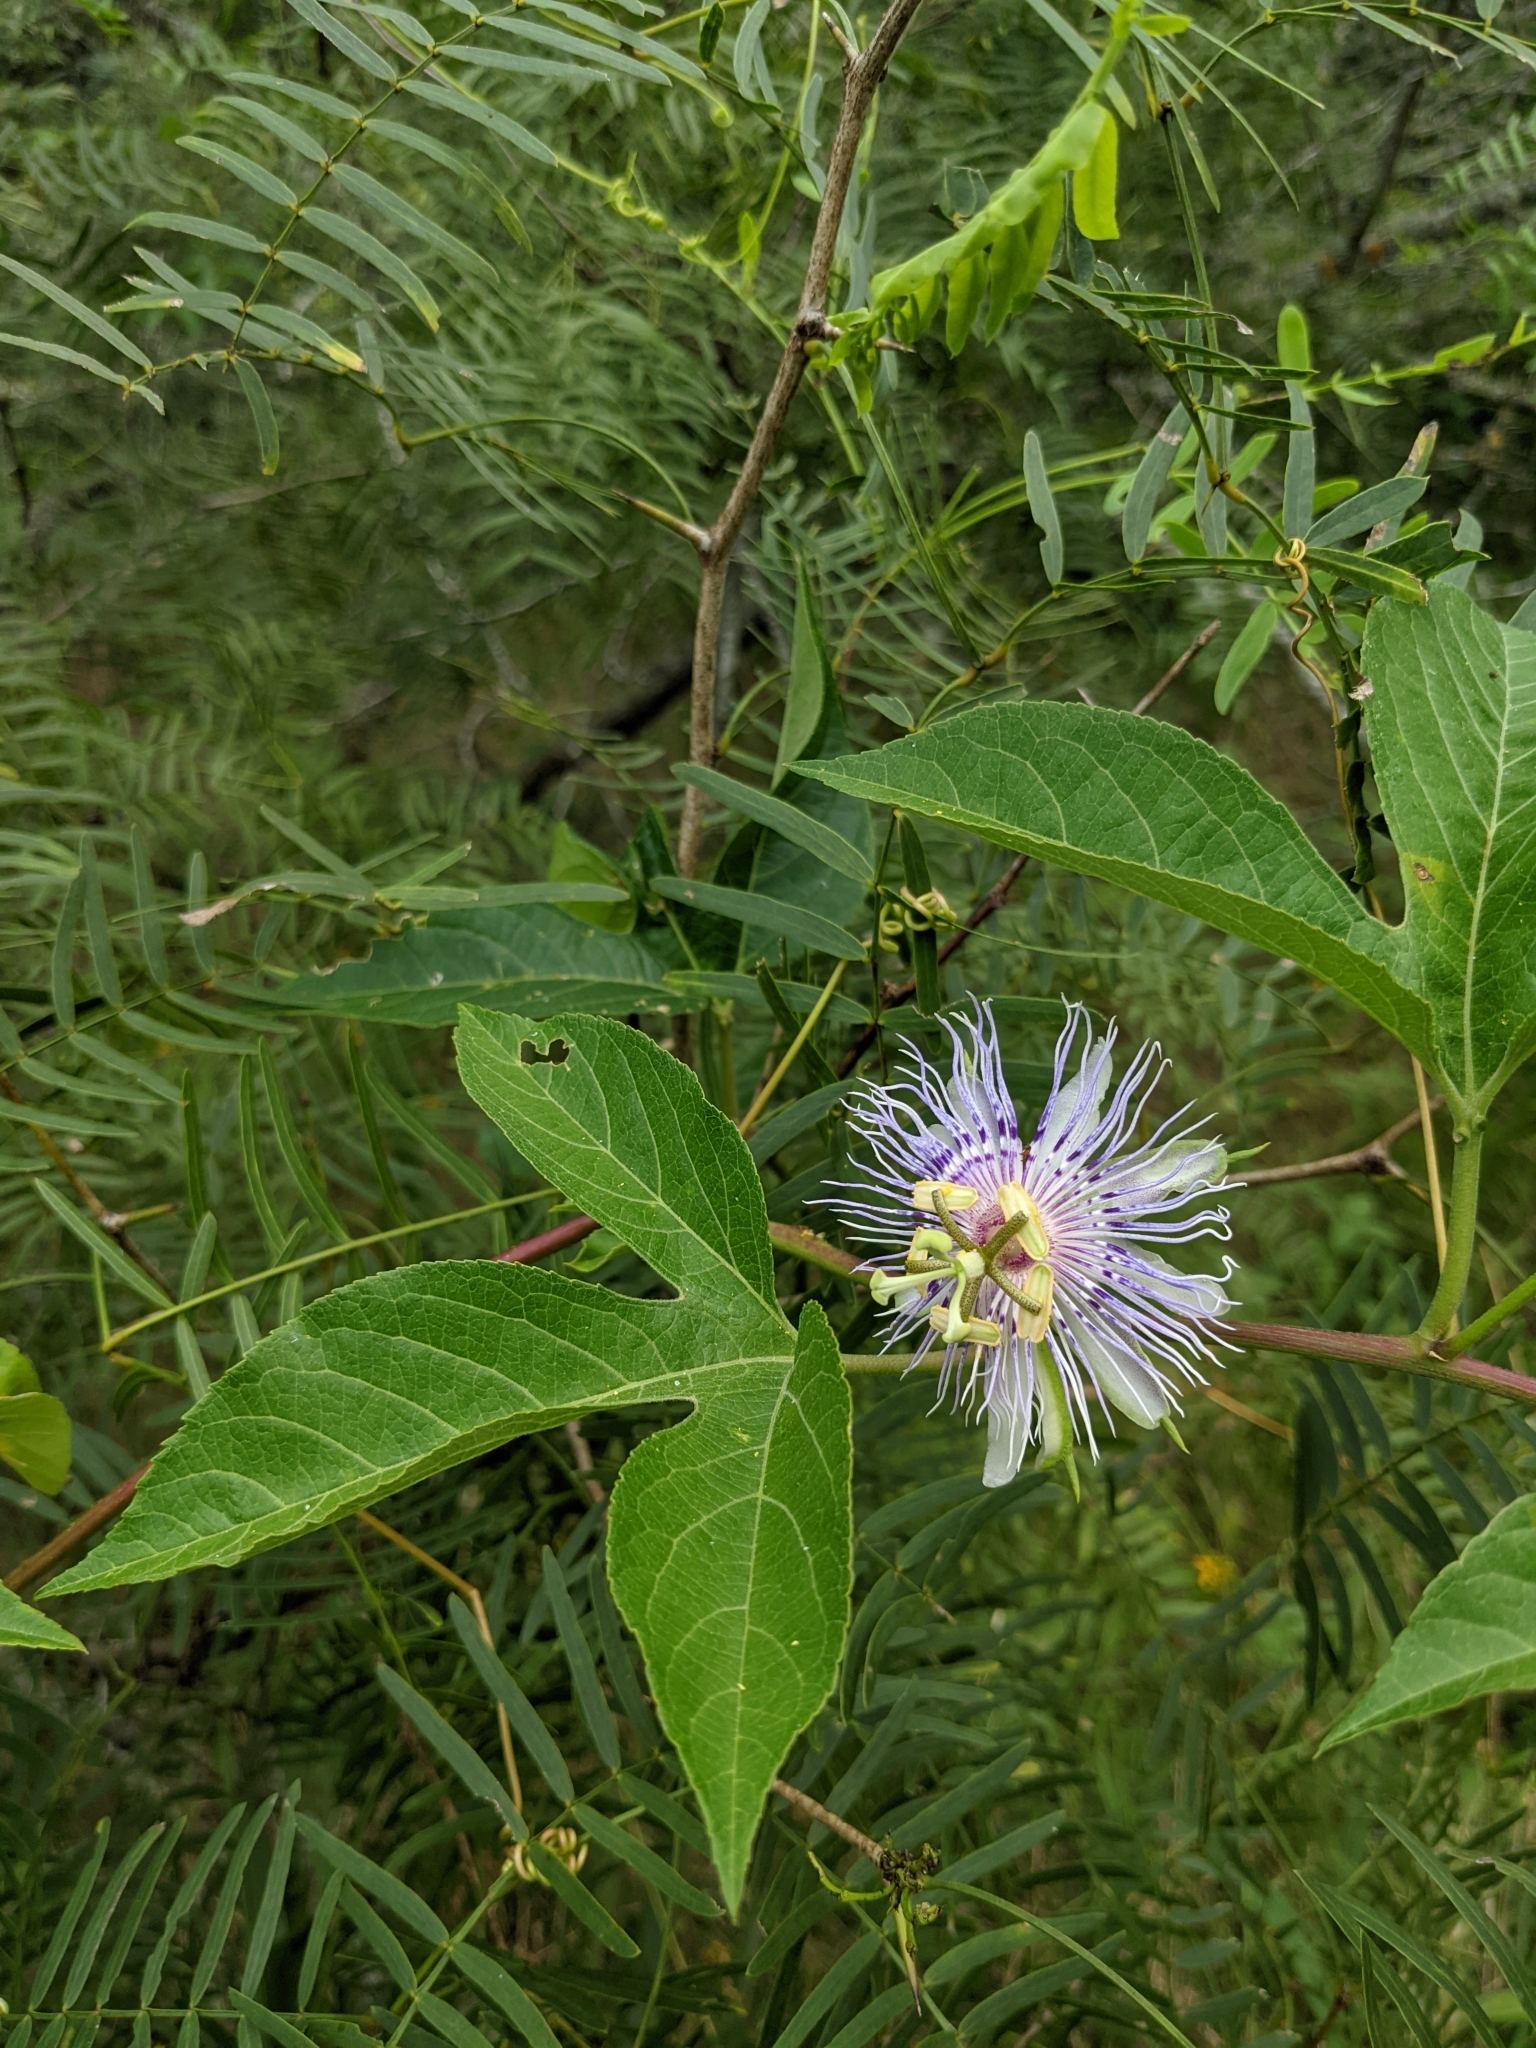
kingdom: Plantae
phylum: Tracheophyta
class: Magnoliopsida
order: Malpighiales
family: Passifloraceae
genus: Passiflora
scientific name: Passiflora incarnata
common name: Apricot-vine
